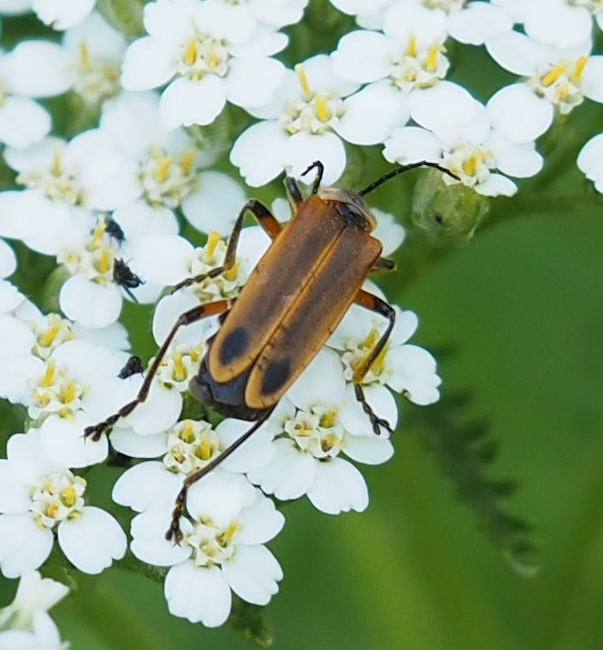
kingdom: Animalia
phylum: Arthropoda
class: Insecta
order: Coleoptera
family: Cantharidae
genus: Chauliognathus
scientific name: Chauliognathus marginatus
